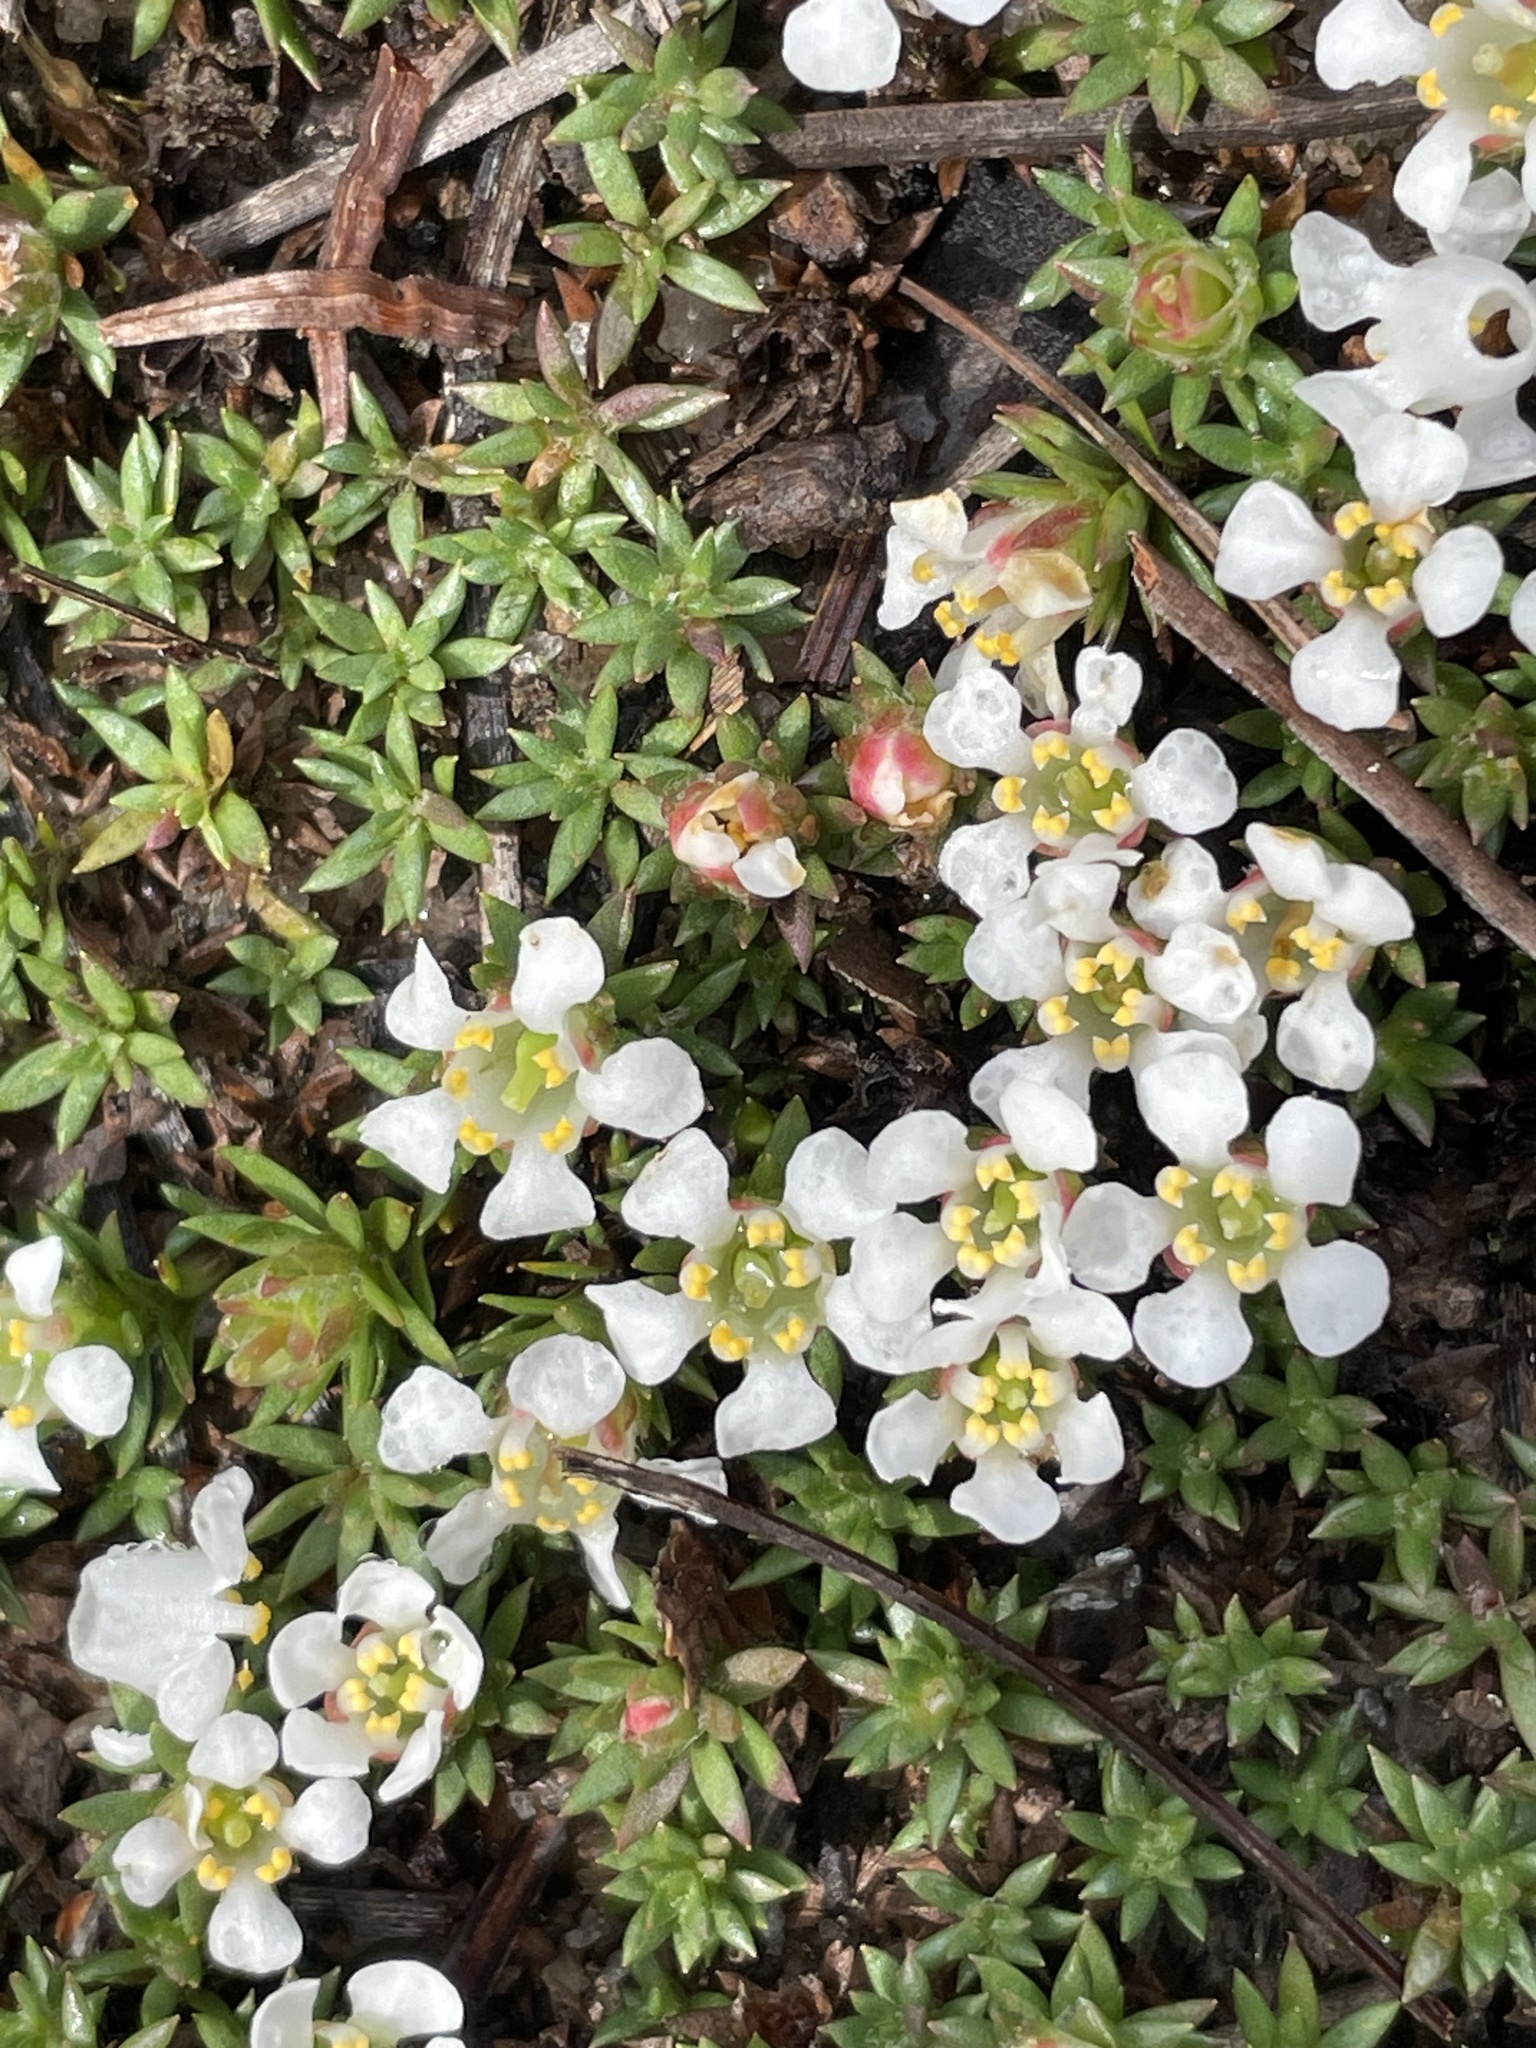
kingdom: Plantae
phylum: Tracheophyta
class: Magnoliopsida
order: Ericales
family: Diapensiaceae
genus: Pyxidanthera
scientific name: Pyxidanthera brevifolia
